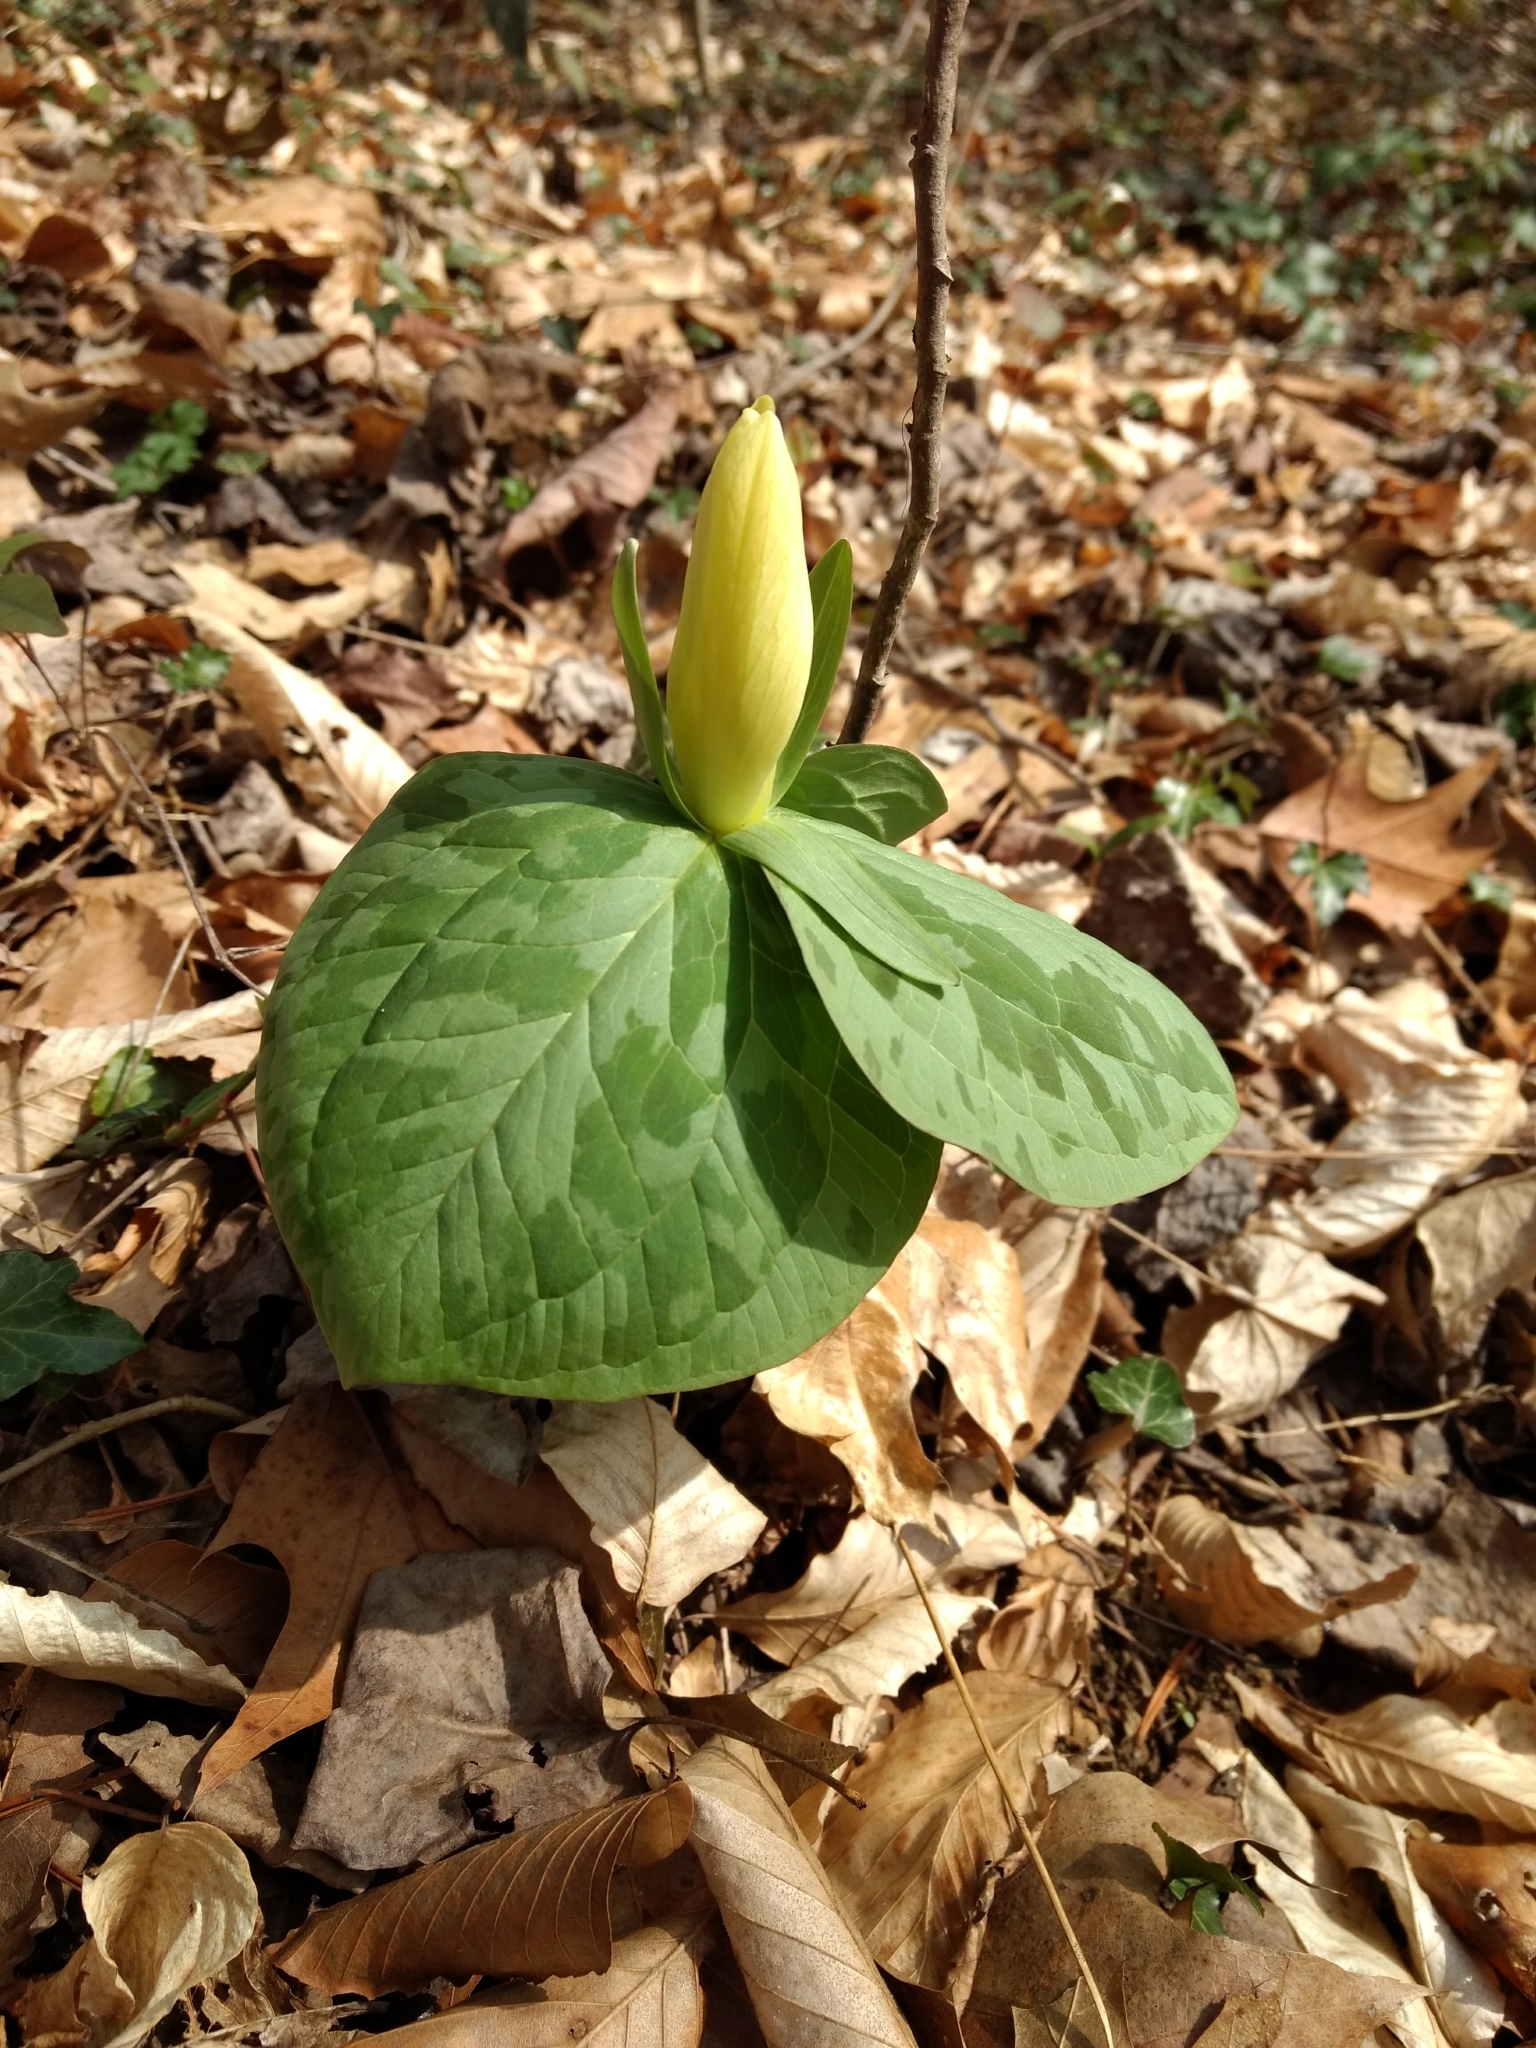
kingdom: Plantae
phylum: Tracheophyta
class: Liliopsida
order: Liliales
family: Melanthiaceae
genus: Trillium
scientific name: Trillium luteum
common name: Wax trillium
